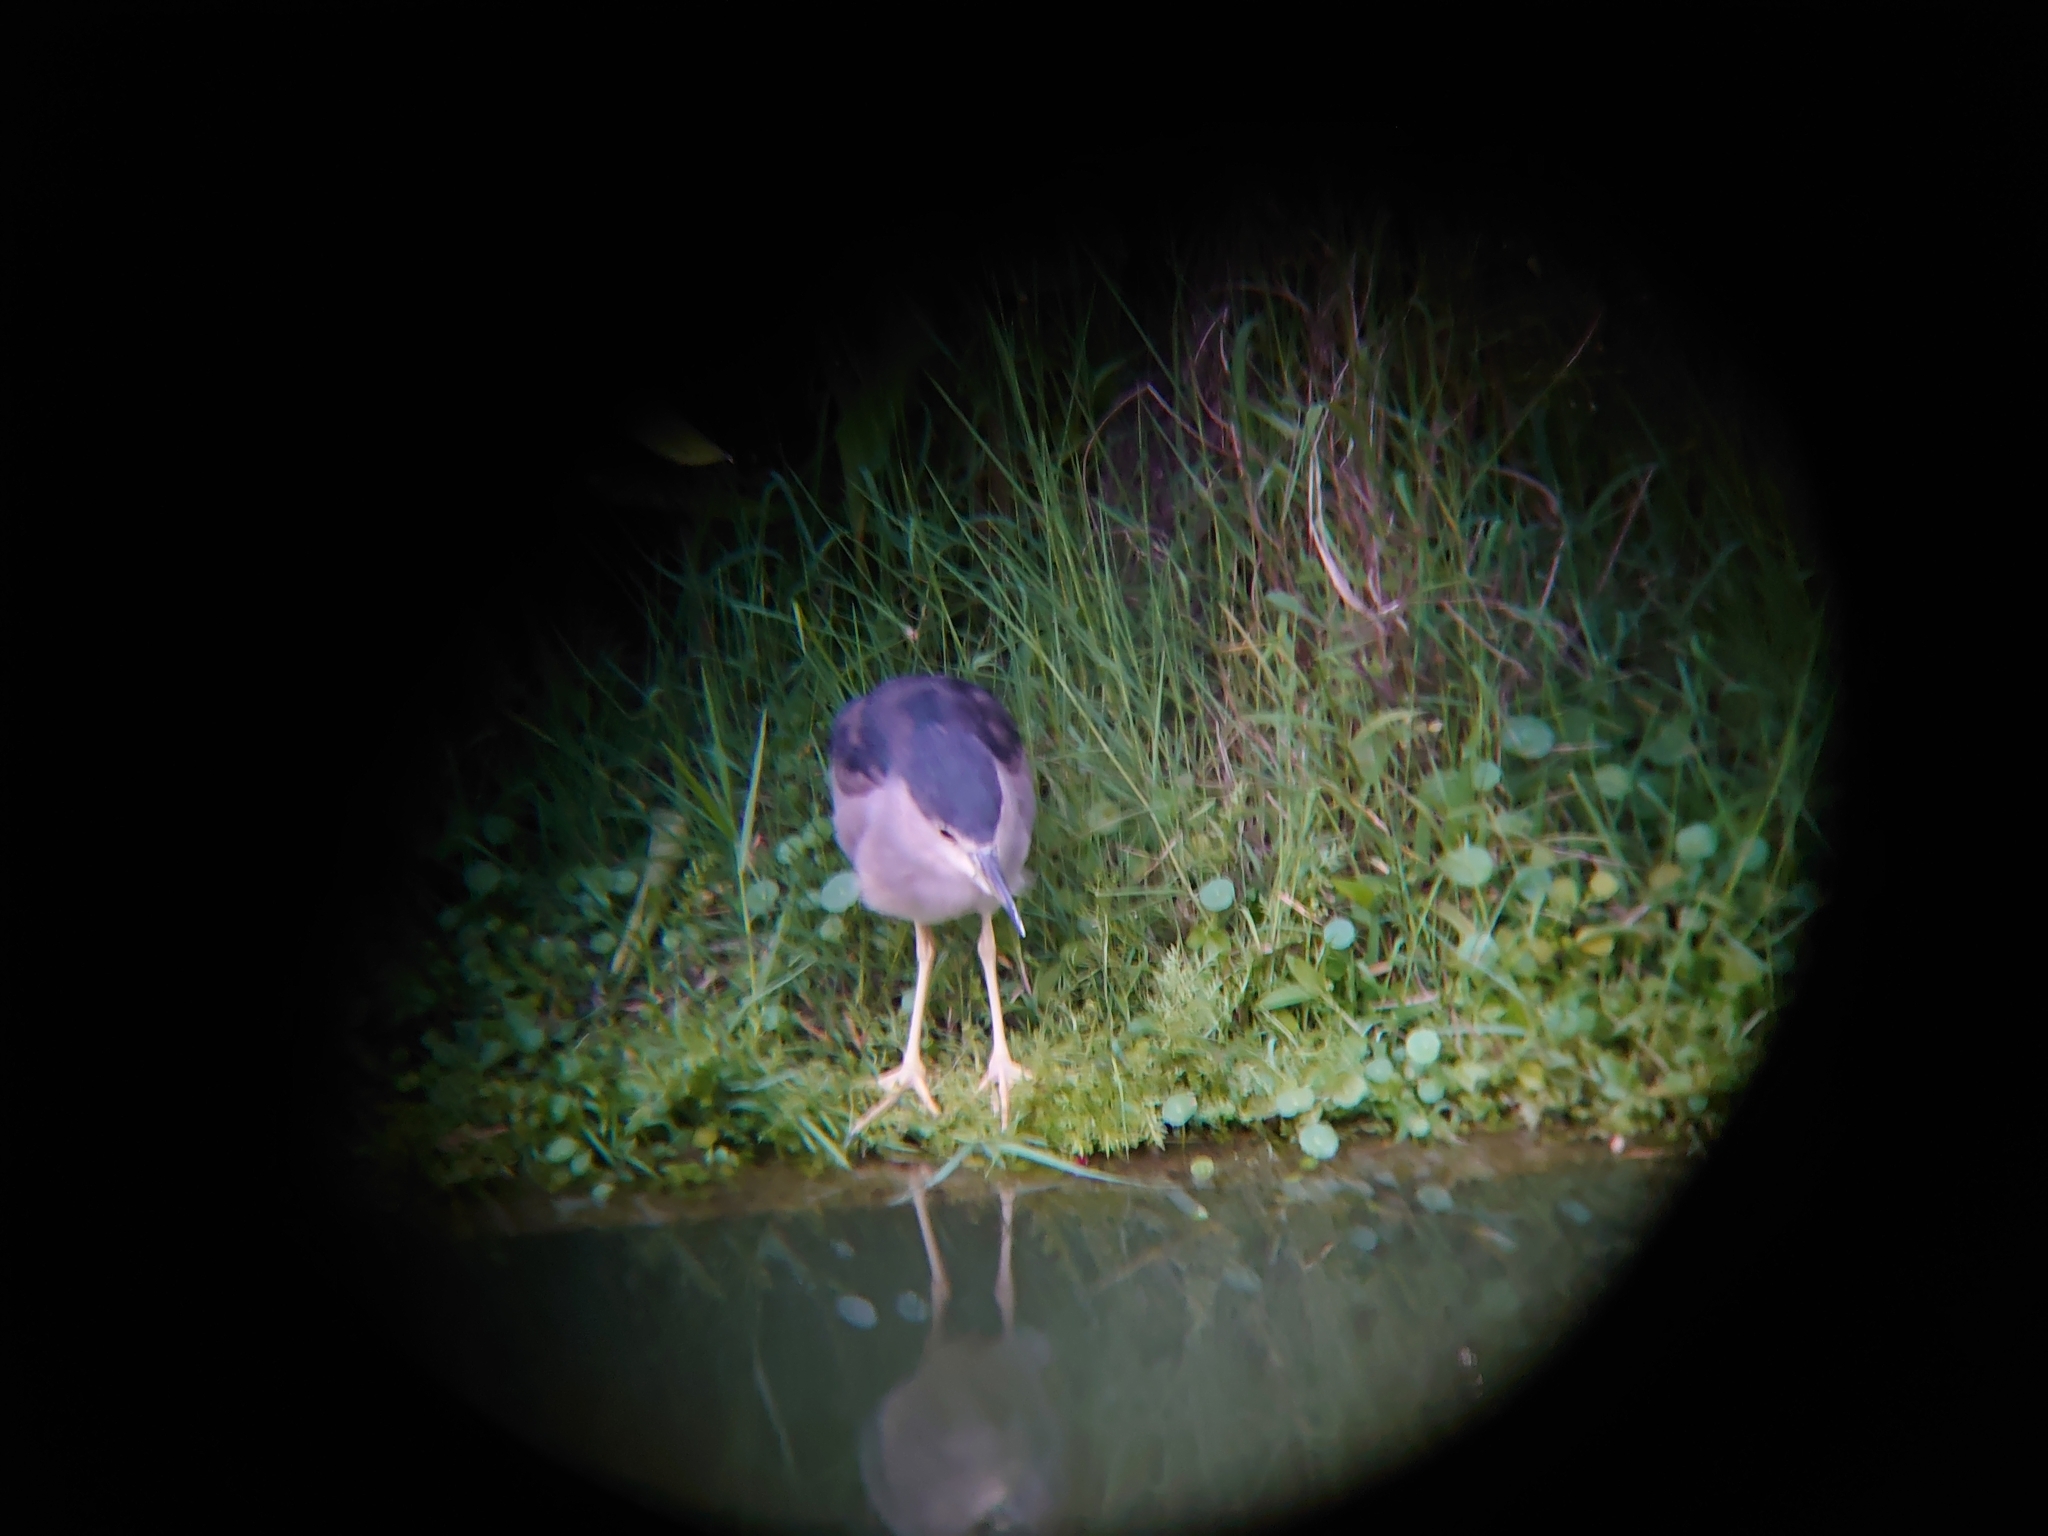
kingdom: Animalia
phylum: Chordata
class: Aves
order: Pelecaniformes
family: Ardeidae
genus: Nycticorax
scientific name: Nycticorax nycticorax
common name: Black-crowned night heron
